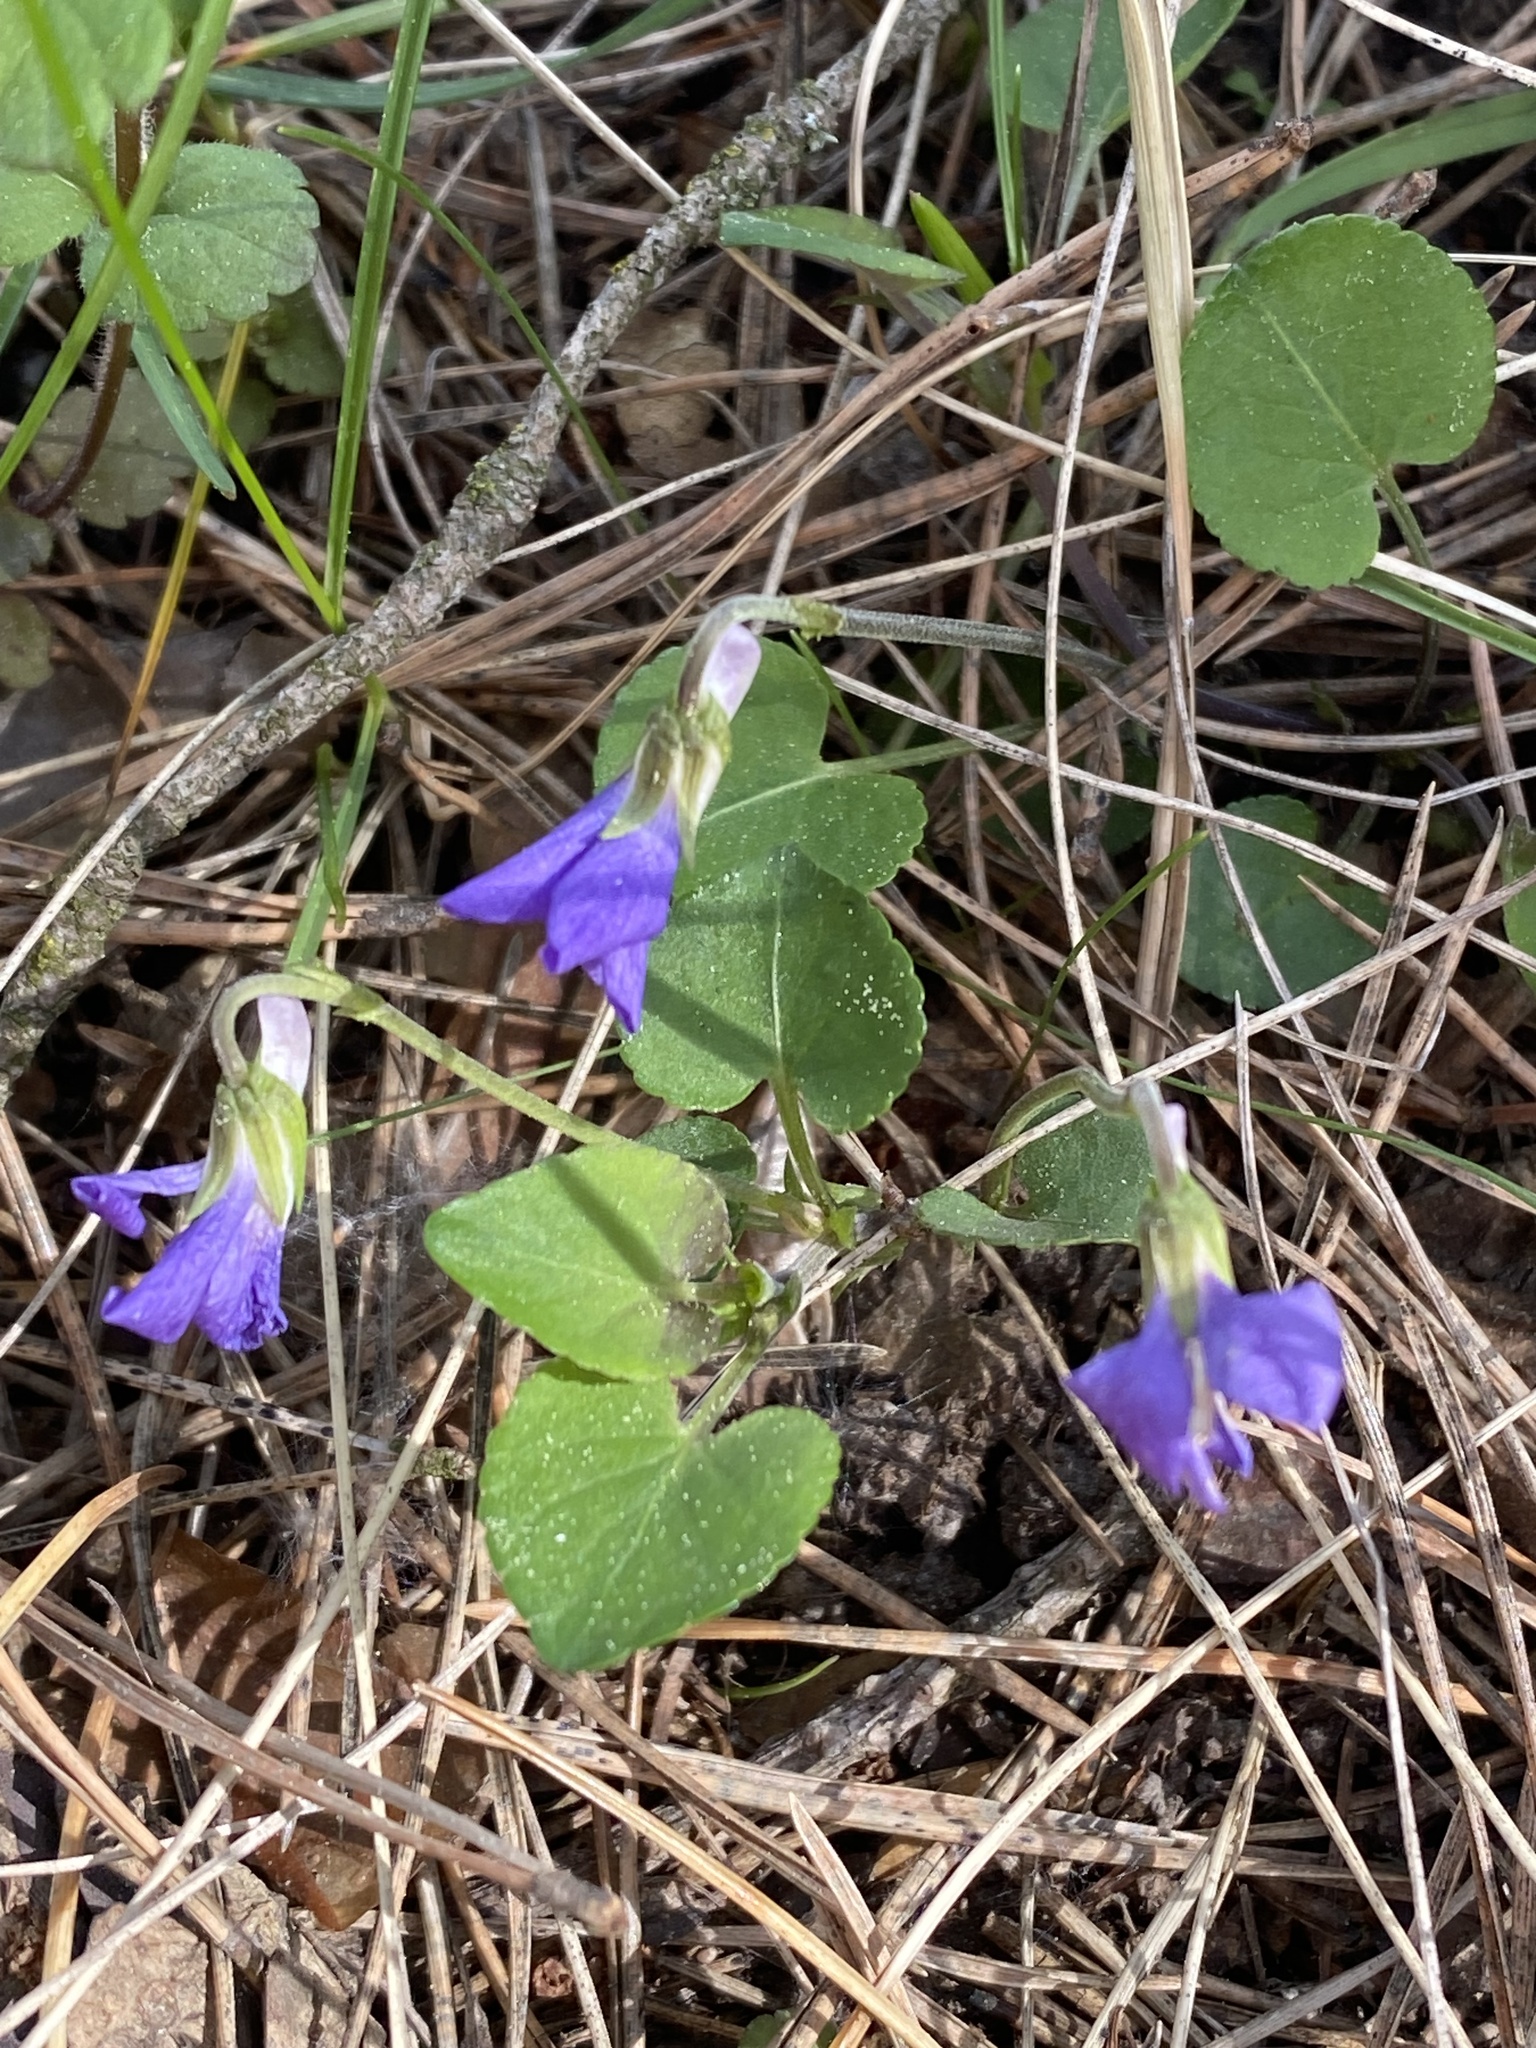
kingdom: Plantae
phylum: Tracheophyta
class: Magnoliopsida
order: Malpighiales
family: Violaceae
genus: Viola
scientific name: Viola rupestris
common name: Teesdale violet
